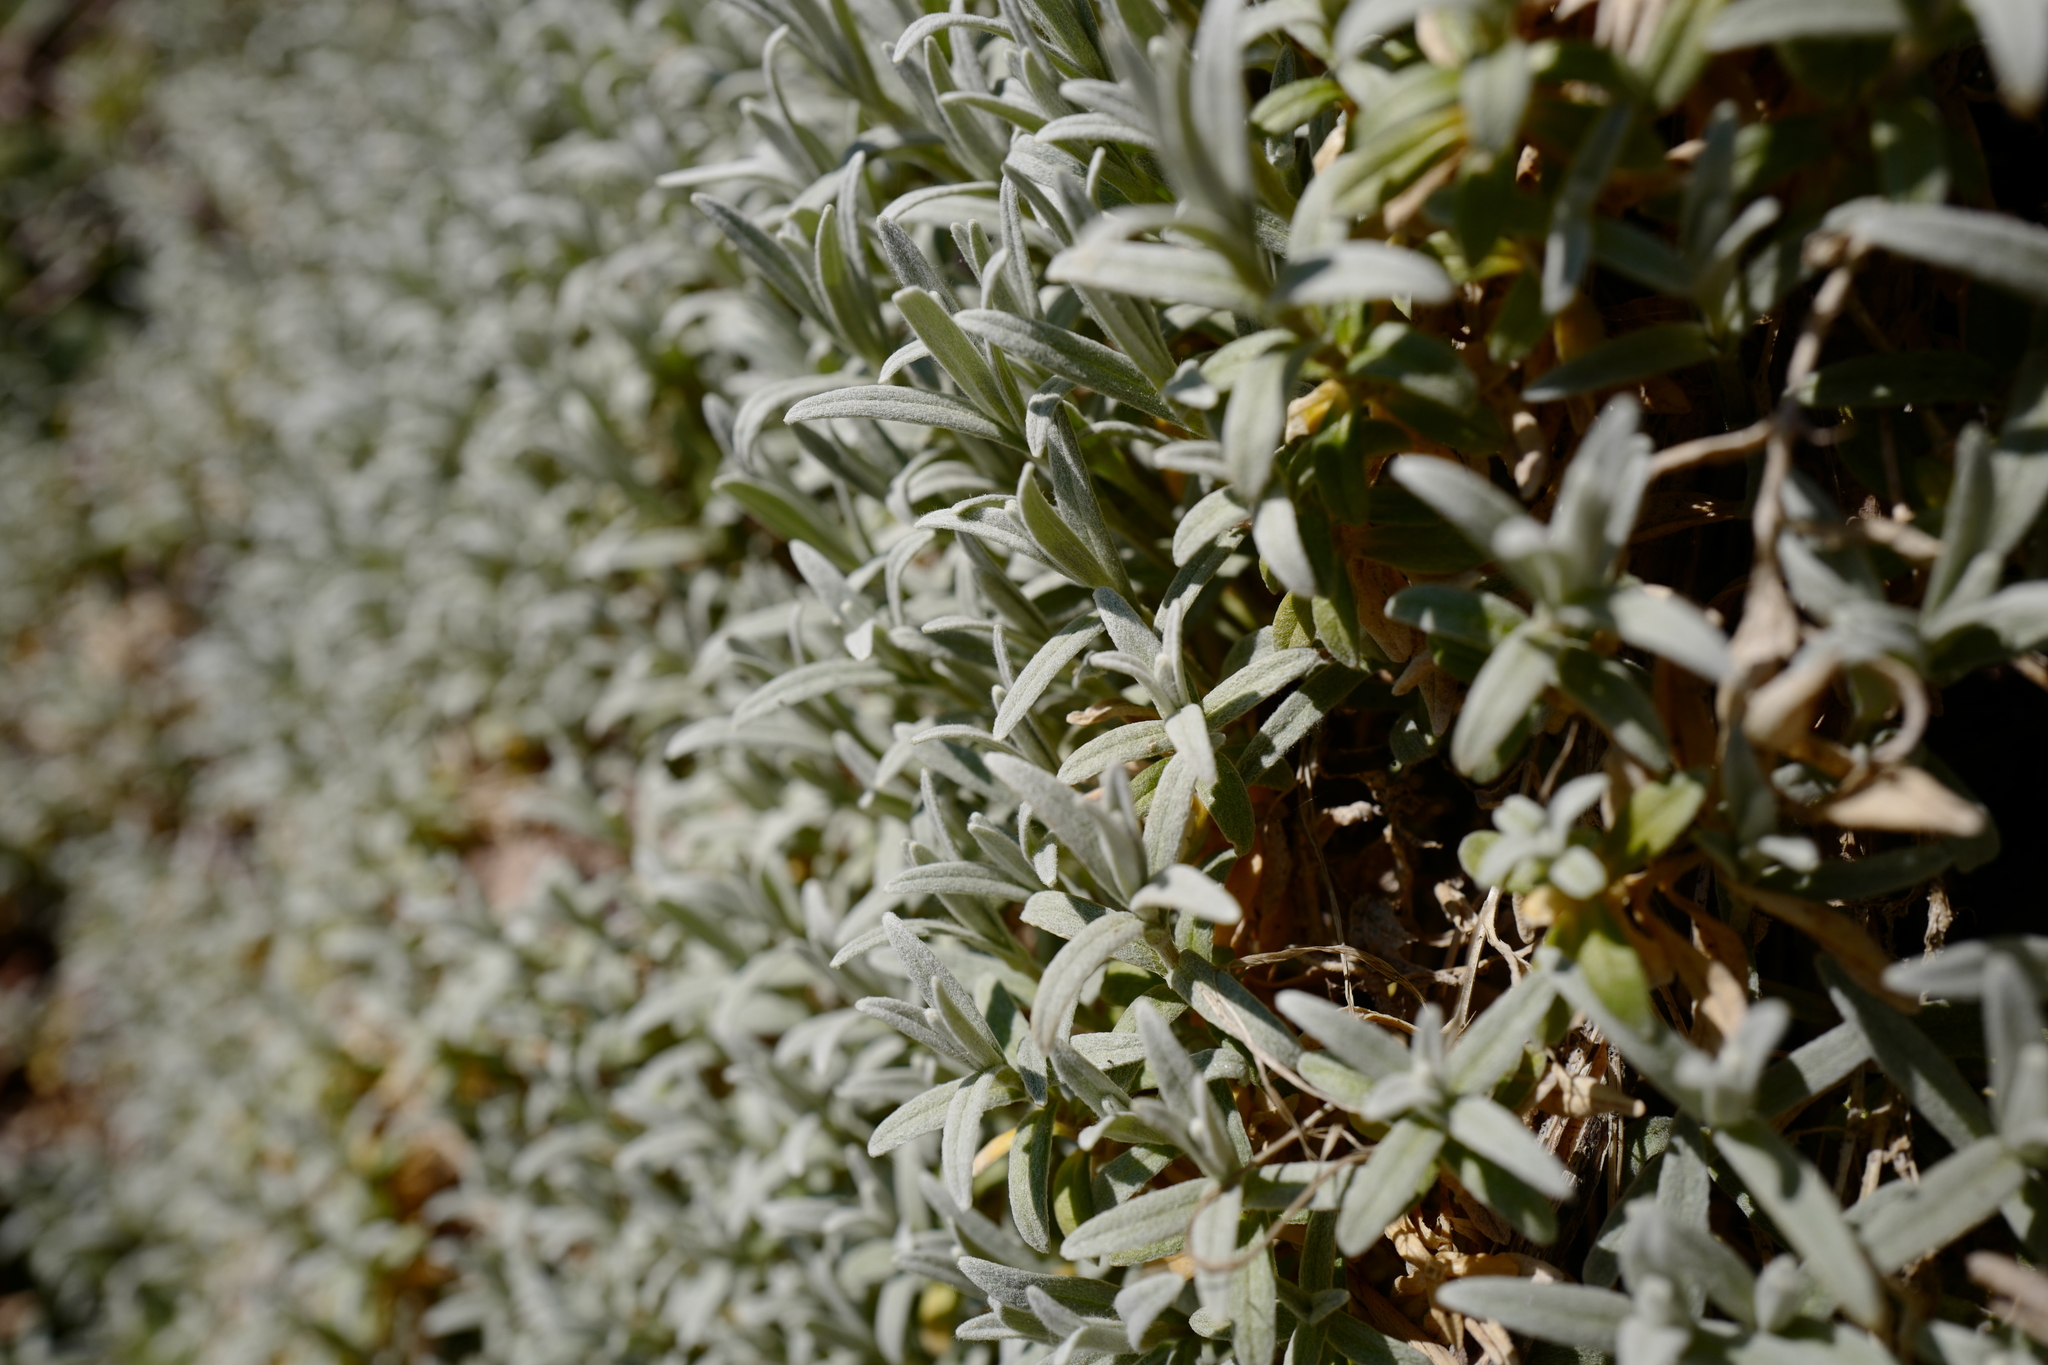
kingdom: Plantae
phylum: Tracheophyta
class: Magnoliopsida
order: Caryophyllales
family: Caryophyllaceae
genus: Cerastium
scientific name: Cerastium tomentosum
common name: Snow-in-summer
